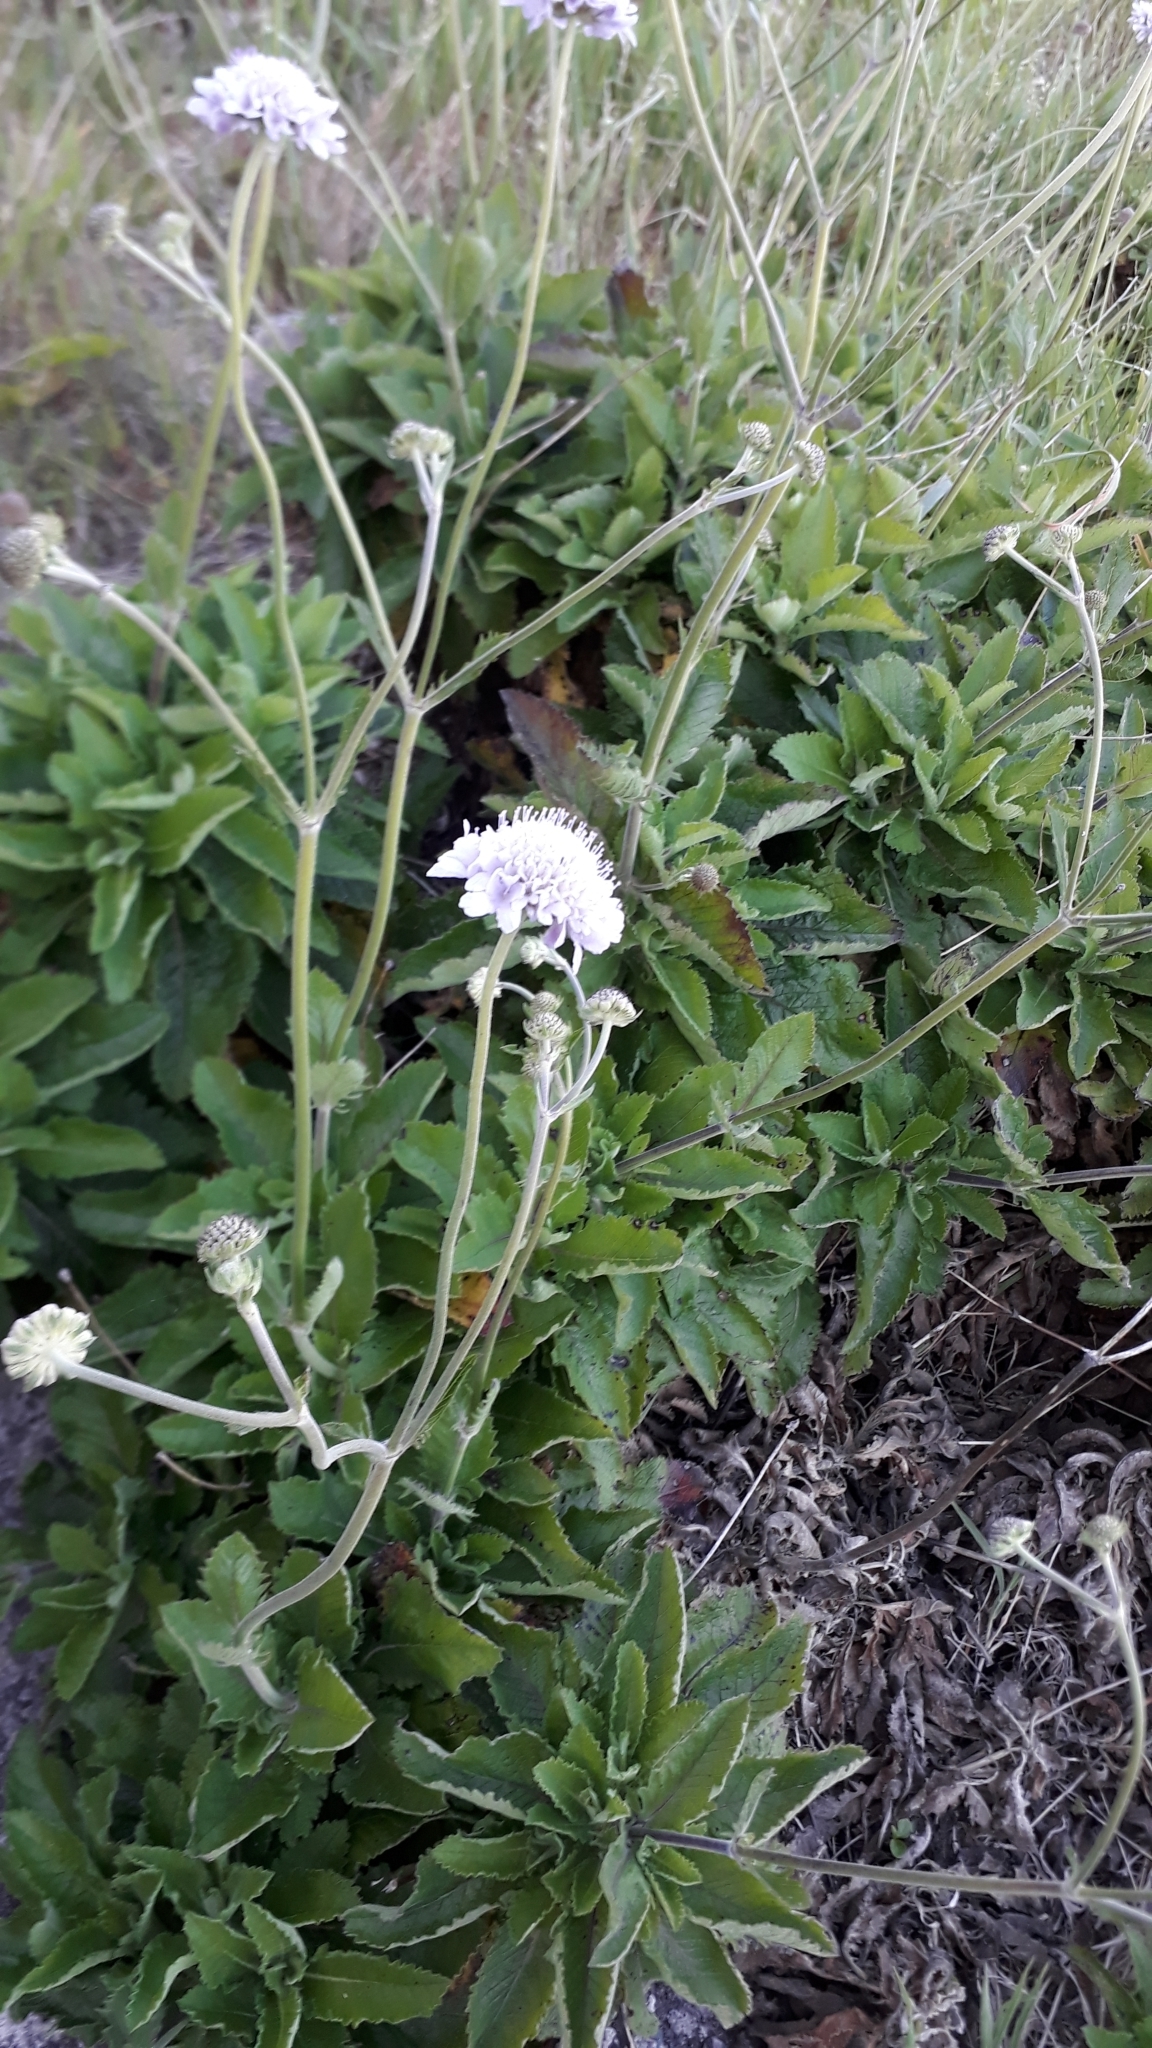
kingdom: Plantae
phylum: Tracheophyta
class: Magnoliopsida
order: Dipsacales
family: Caprifoliaceae
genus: Scabiosa
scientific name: Scabiosa africana
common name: Cape scabious
